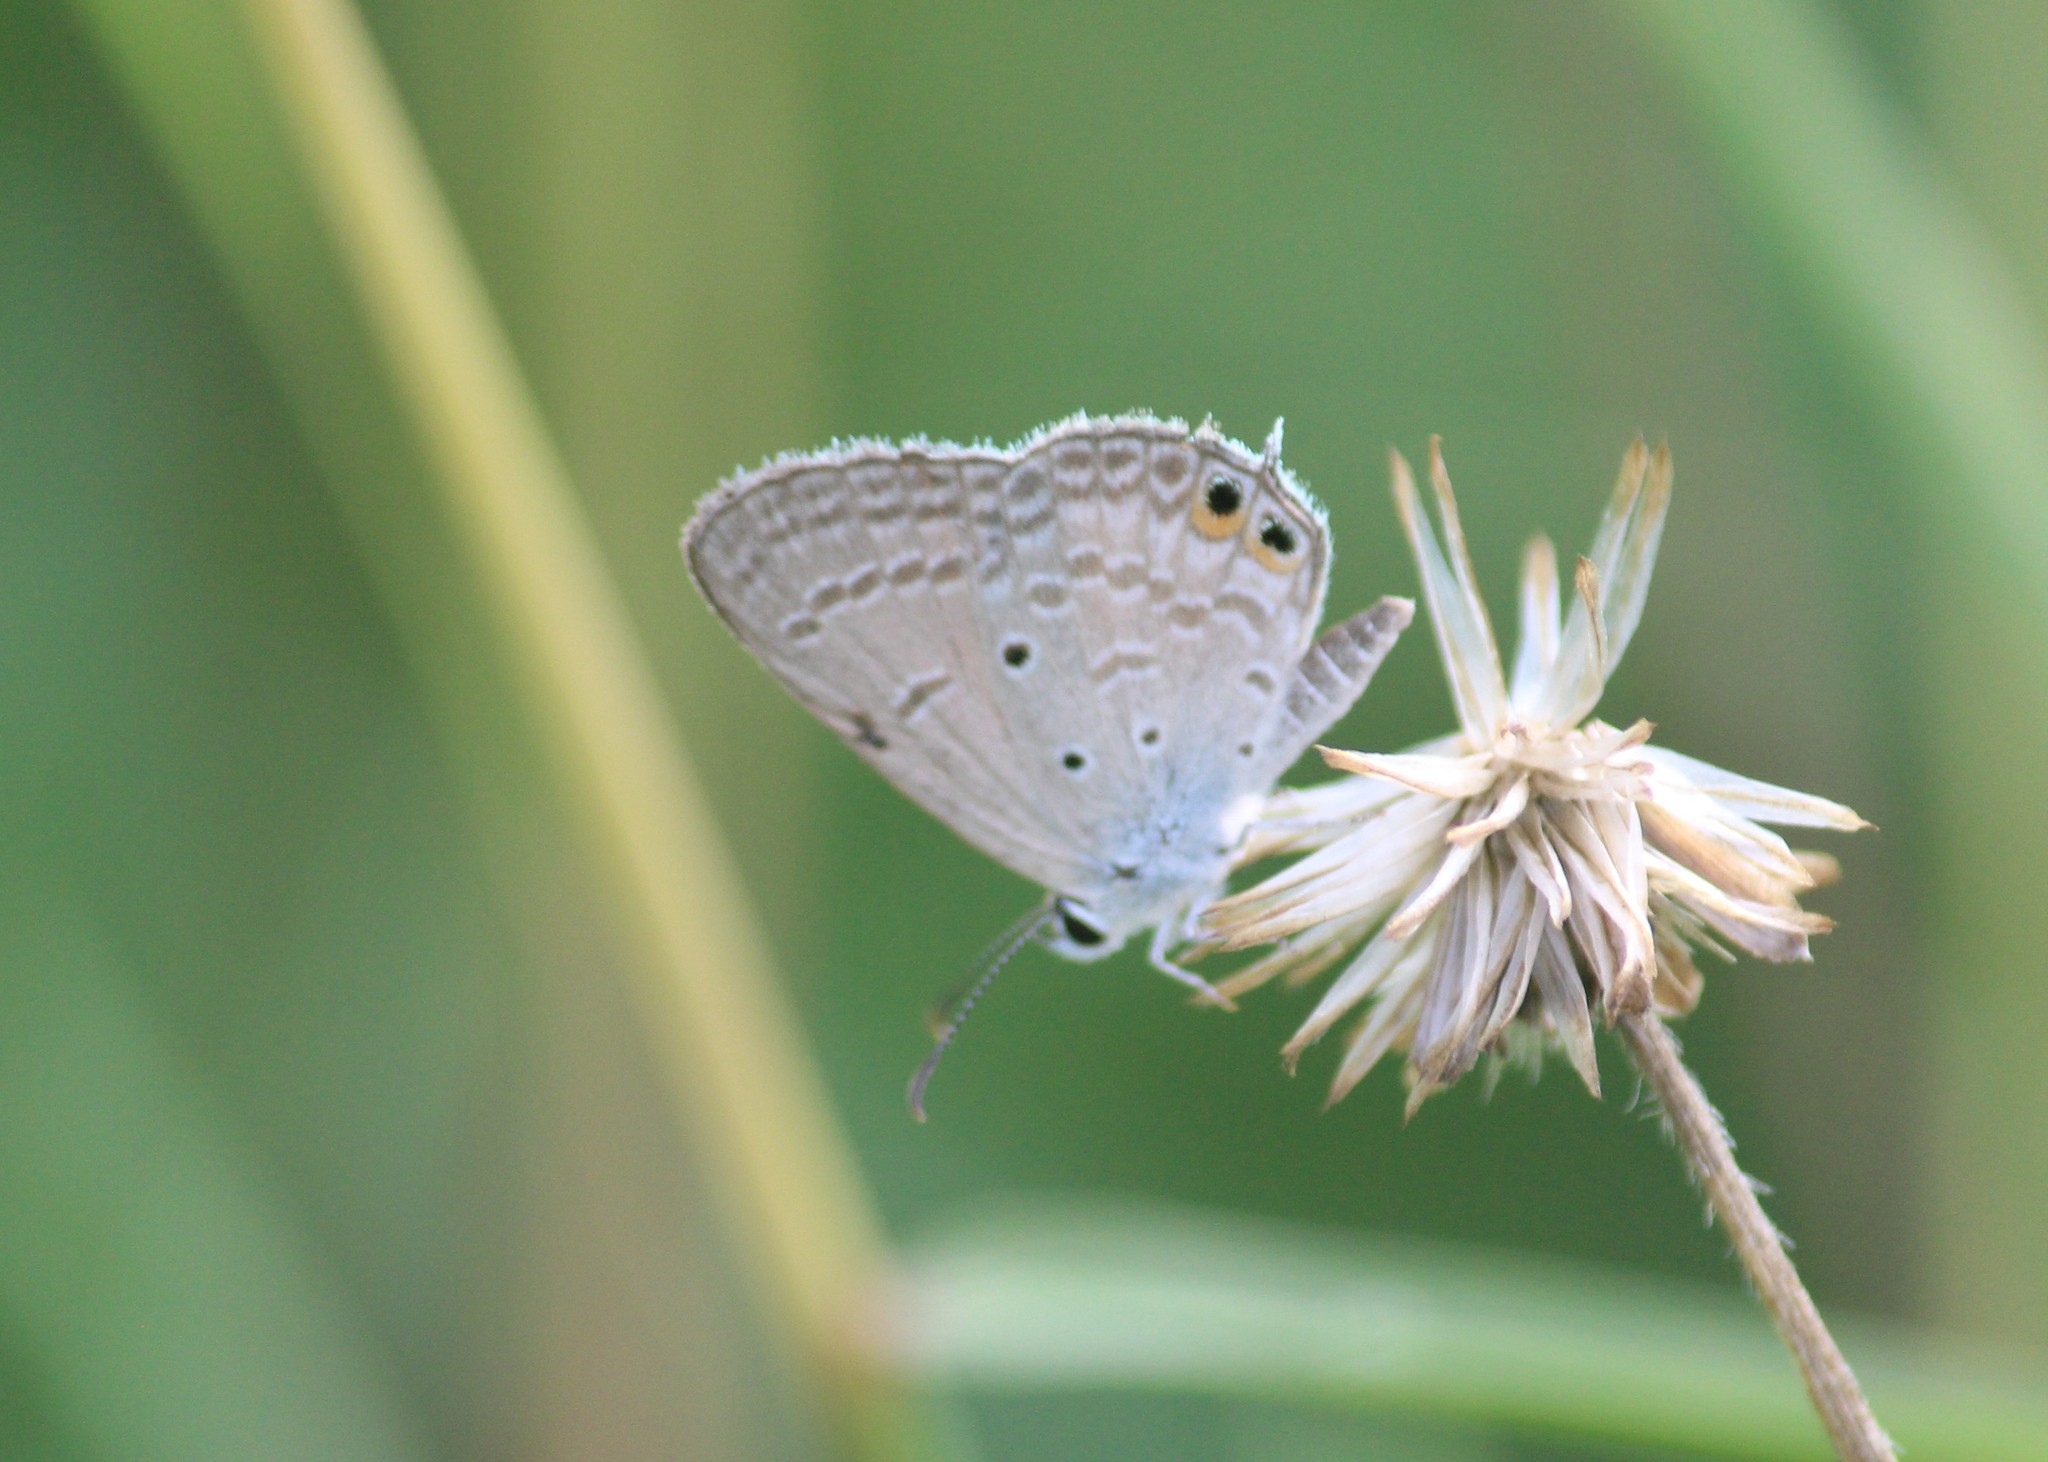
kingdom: Animalia
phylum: Arthropoda
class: Insecta
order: Lepidoptera
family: Lycaenidae
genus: Euchrysops
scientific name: Euchrysops cnejus
